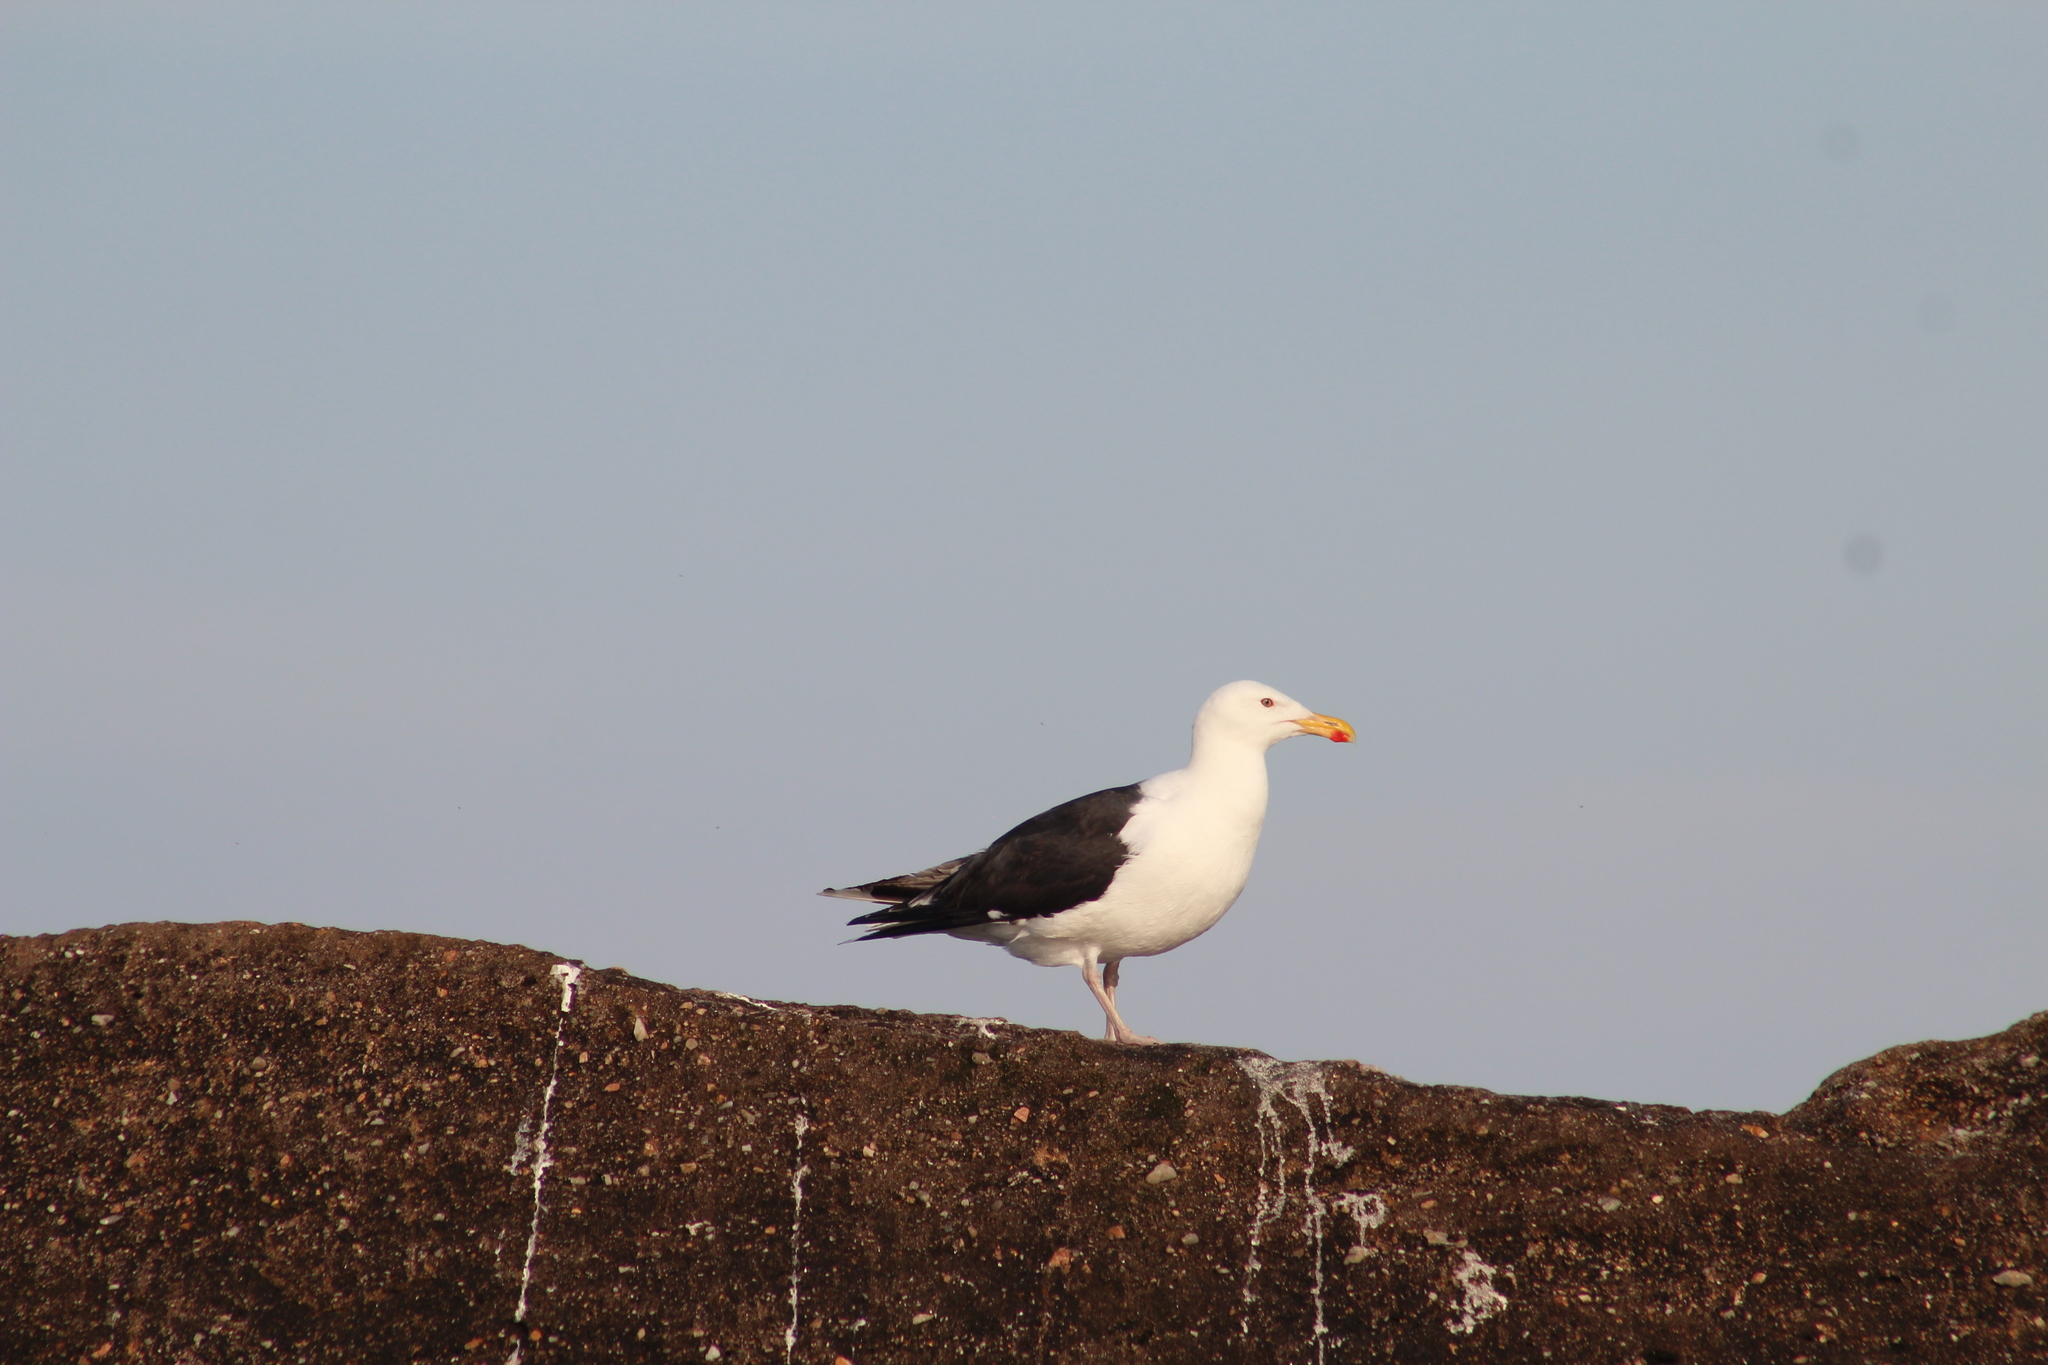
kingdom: Animalia
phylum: Chordata
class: Aves
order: Charadriiformes
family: Laridae
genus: Larus
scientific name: Larus marinus
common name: Great black-backed gull
